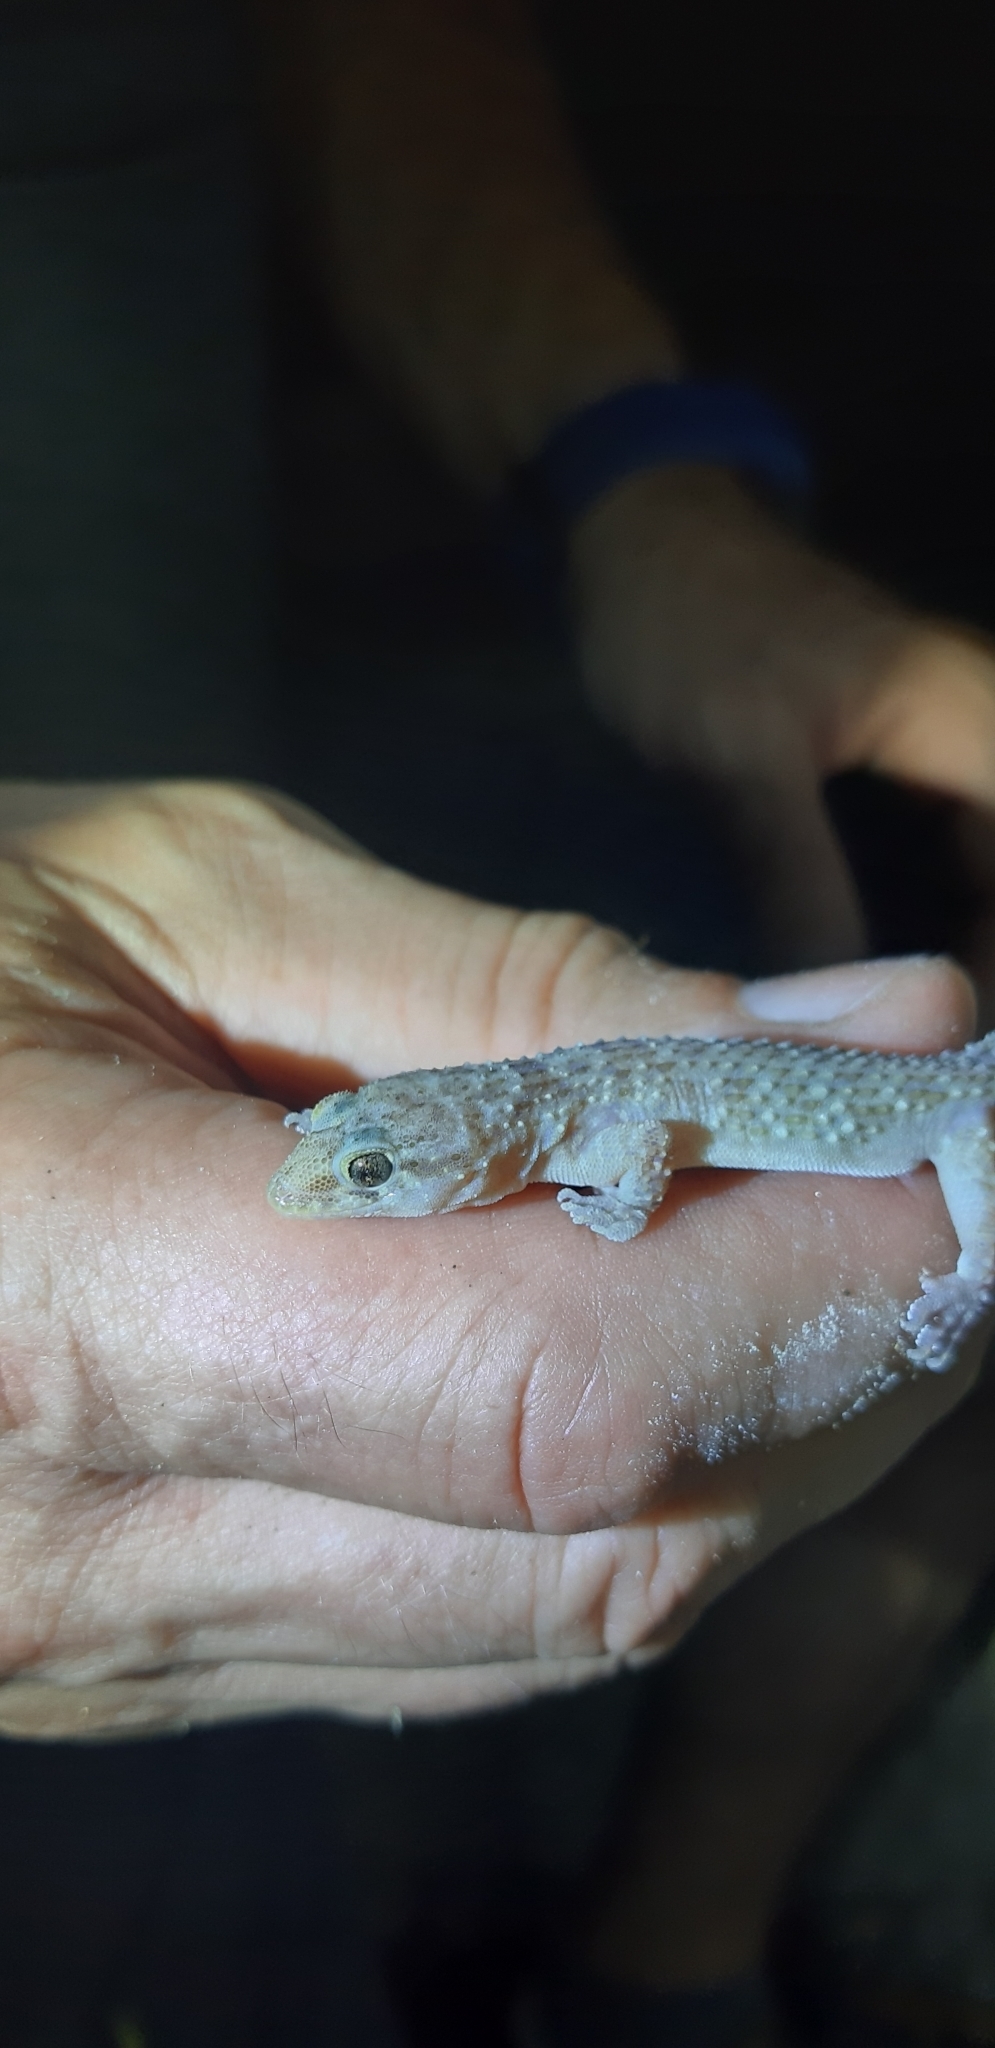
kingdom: Animalia
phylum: Chordata
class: Squamata
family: Gekkonidae
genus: Hemidactylus
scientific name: Hemidactylus turcicus
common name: Turkish gecko
